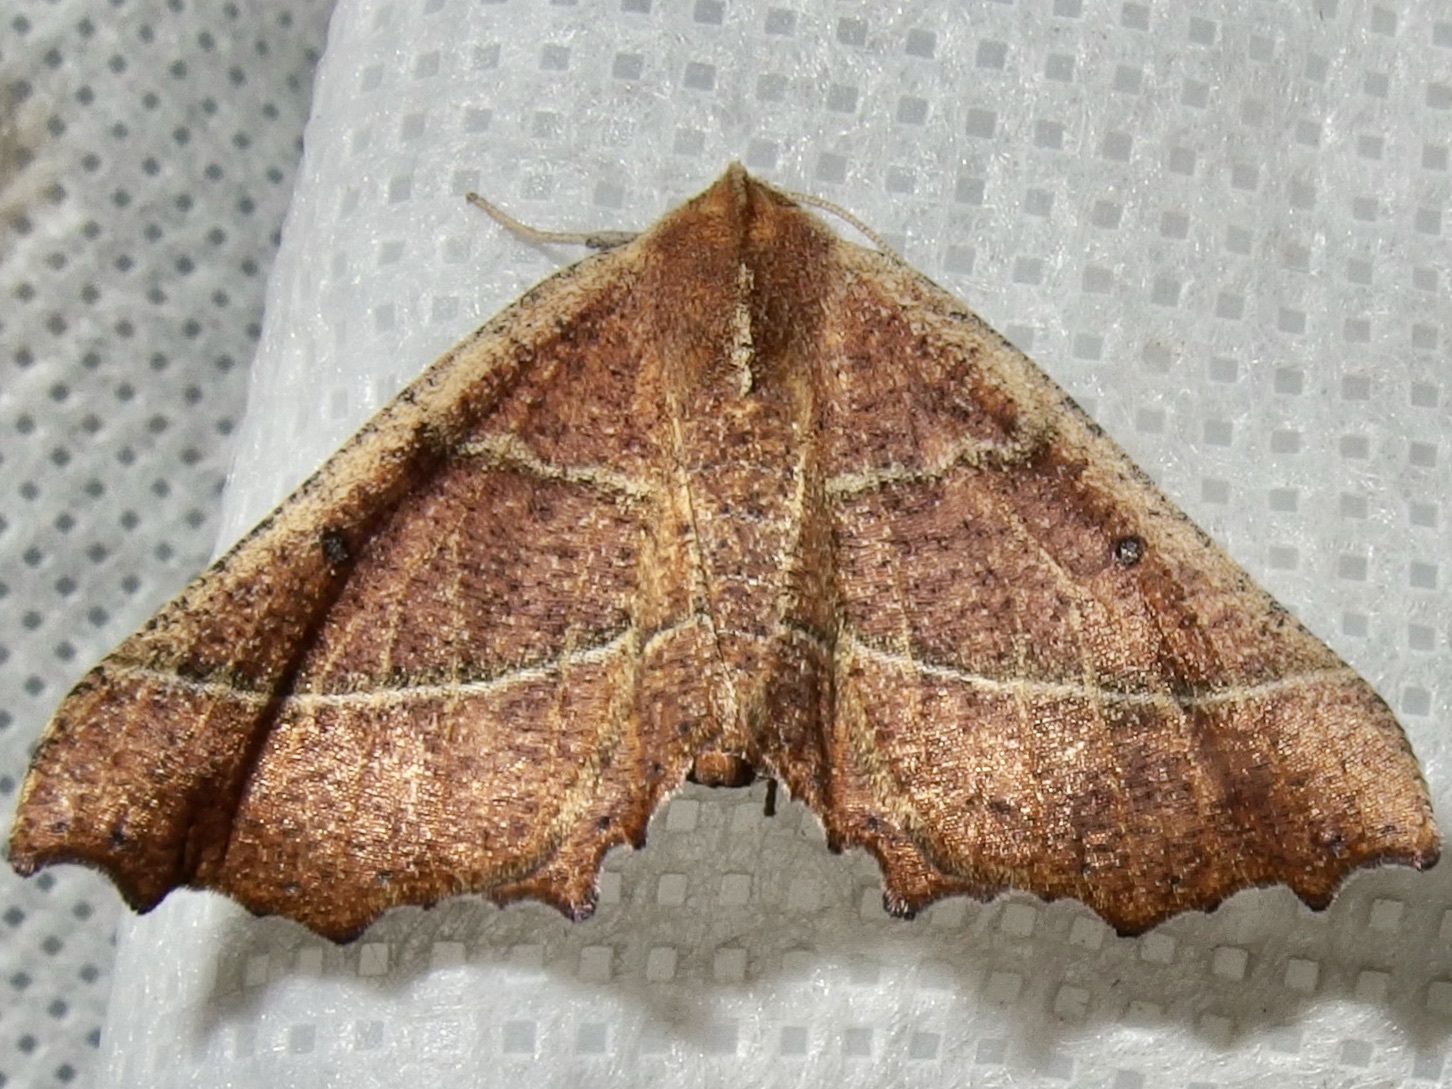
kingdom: Animalia
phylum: Arthropoda
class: Insecta
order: Lepidoptera
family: Geometridae
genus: Pero
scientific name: Pero radiosaria
